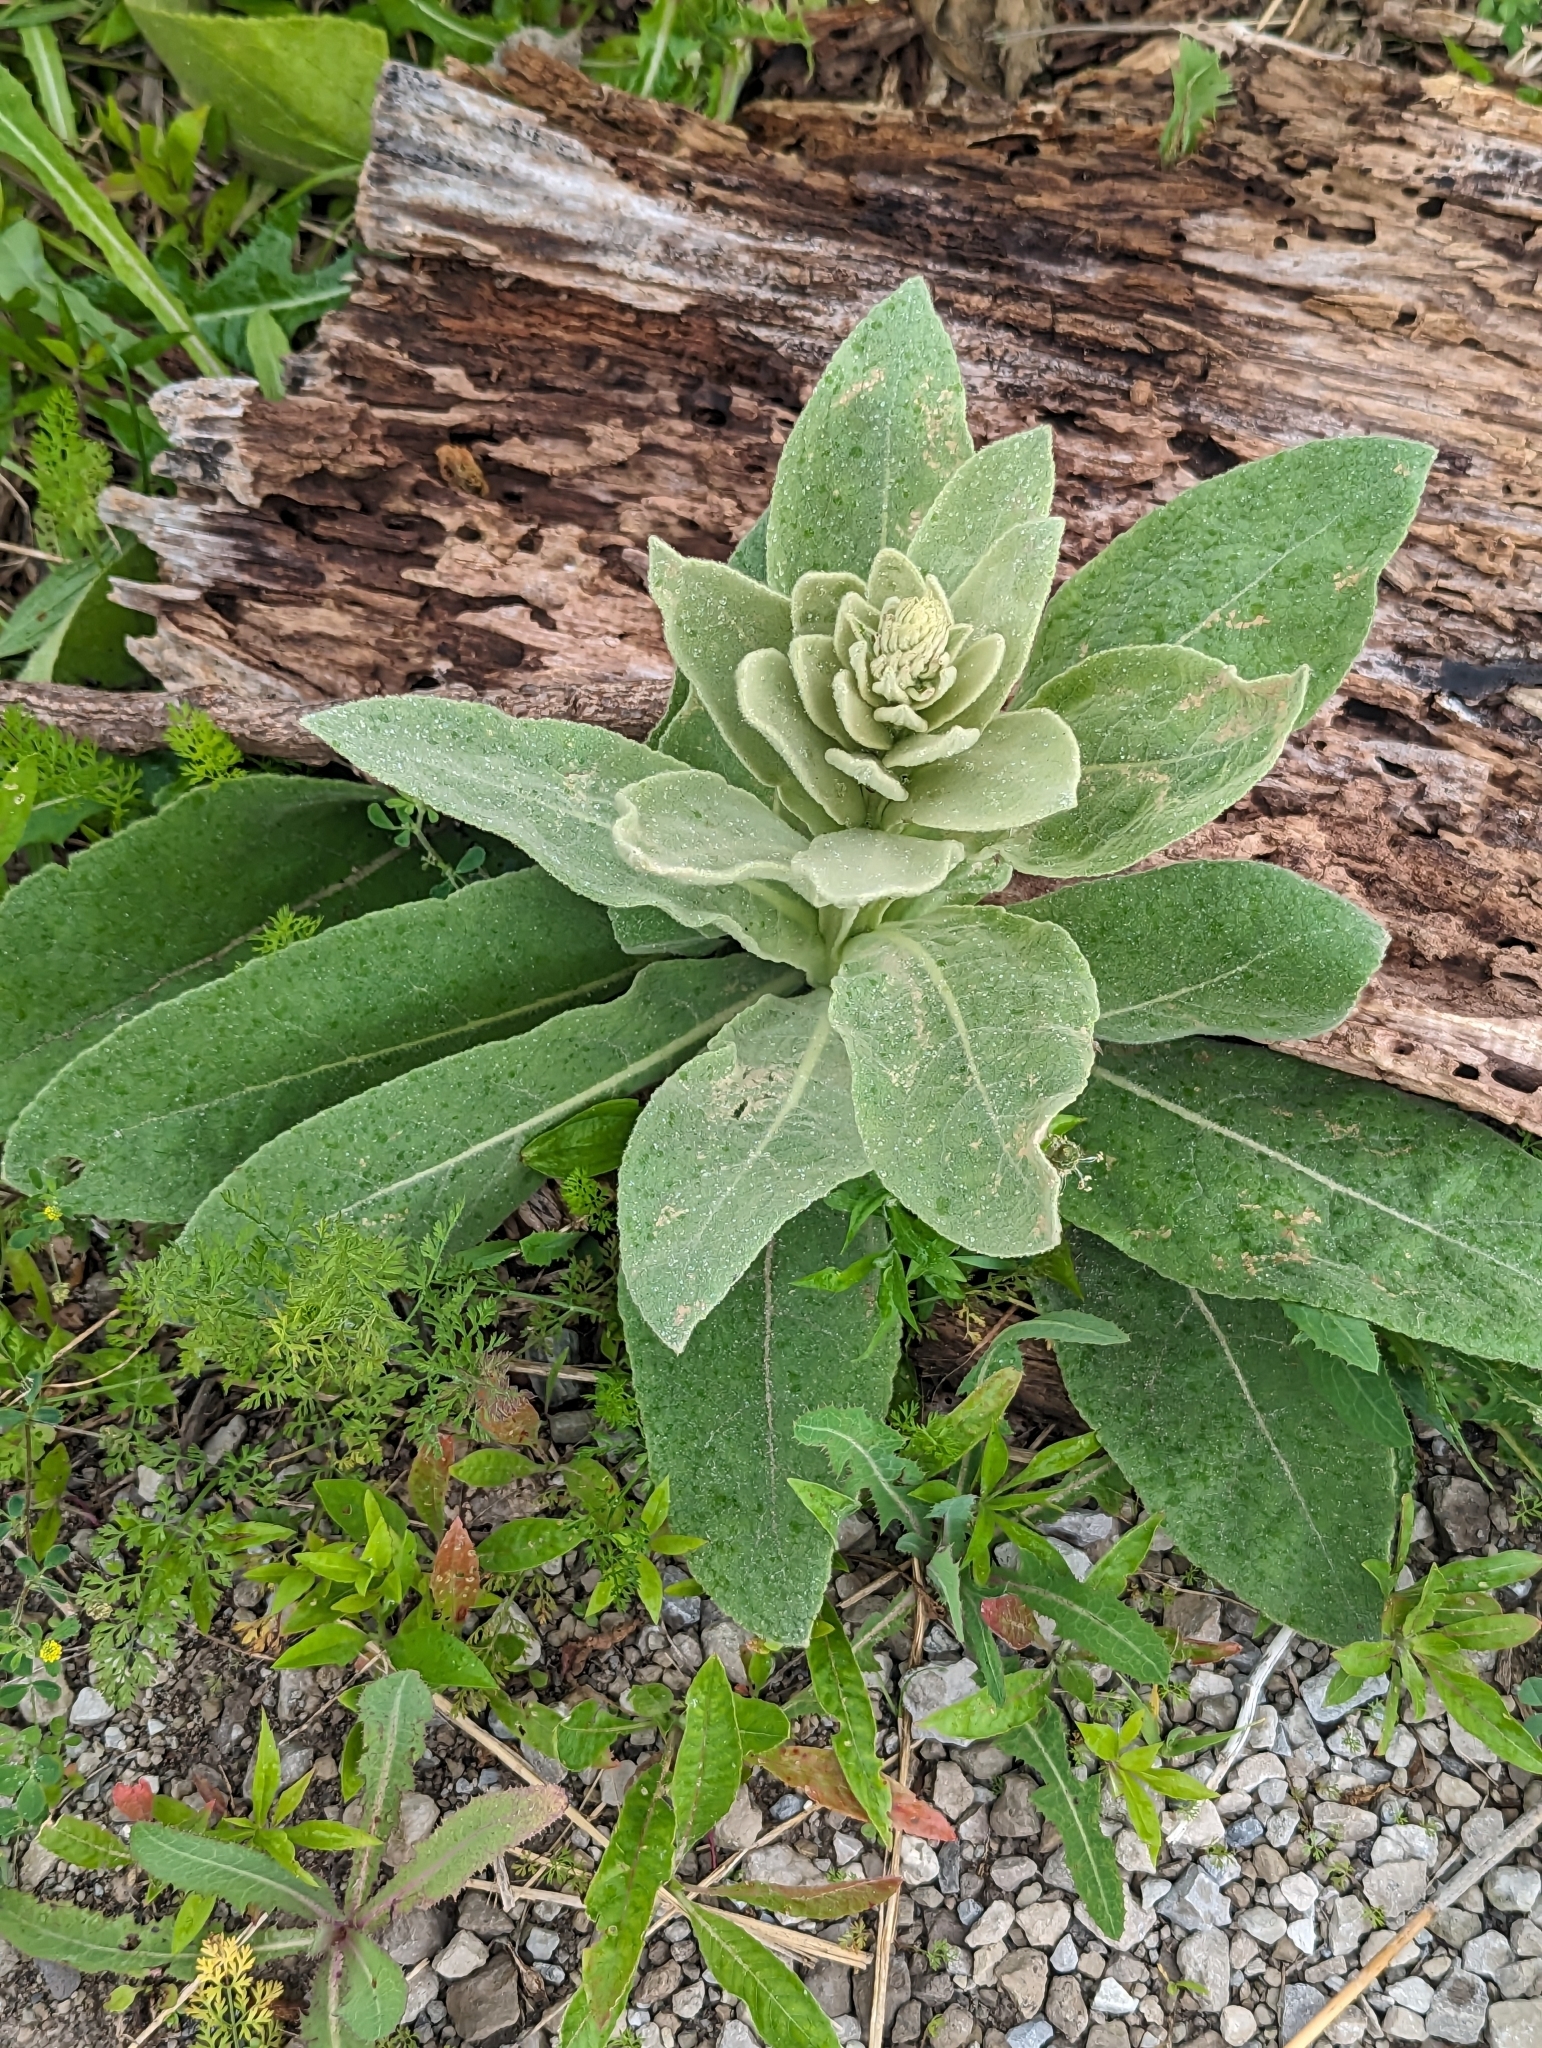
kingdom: Plantae
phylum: Tracheophyta
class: Magnoliopsida
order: Lamiales
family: Scrophulariaceae
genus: Verbascum
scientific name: Verbascum thapsus
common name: Common mullein
